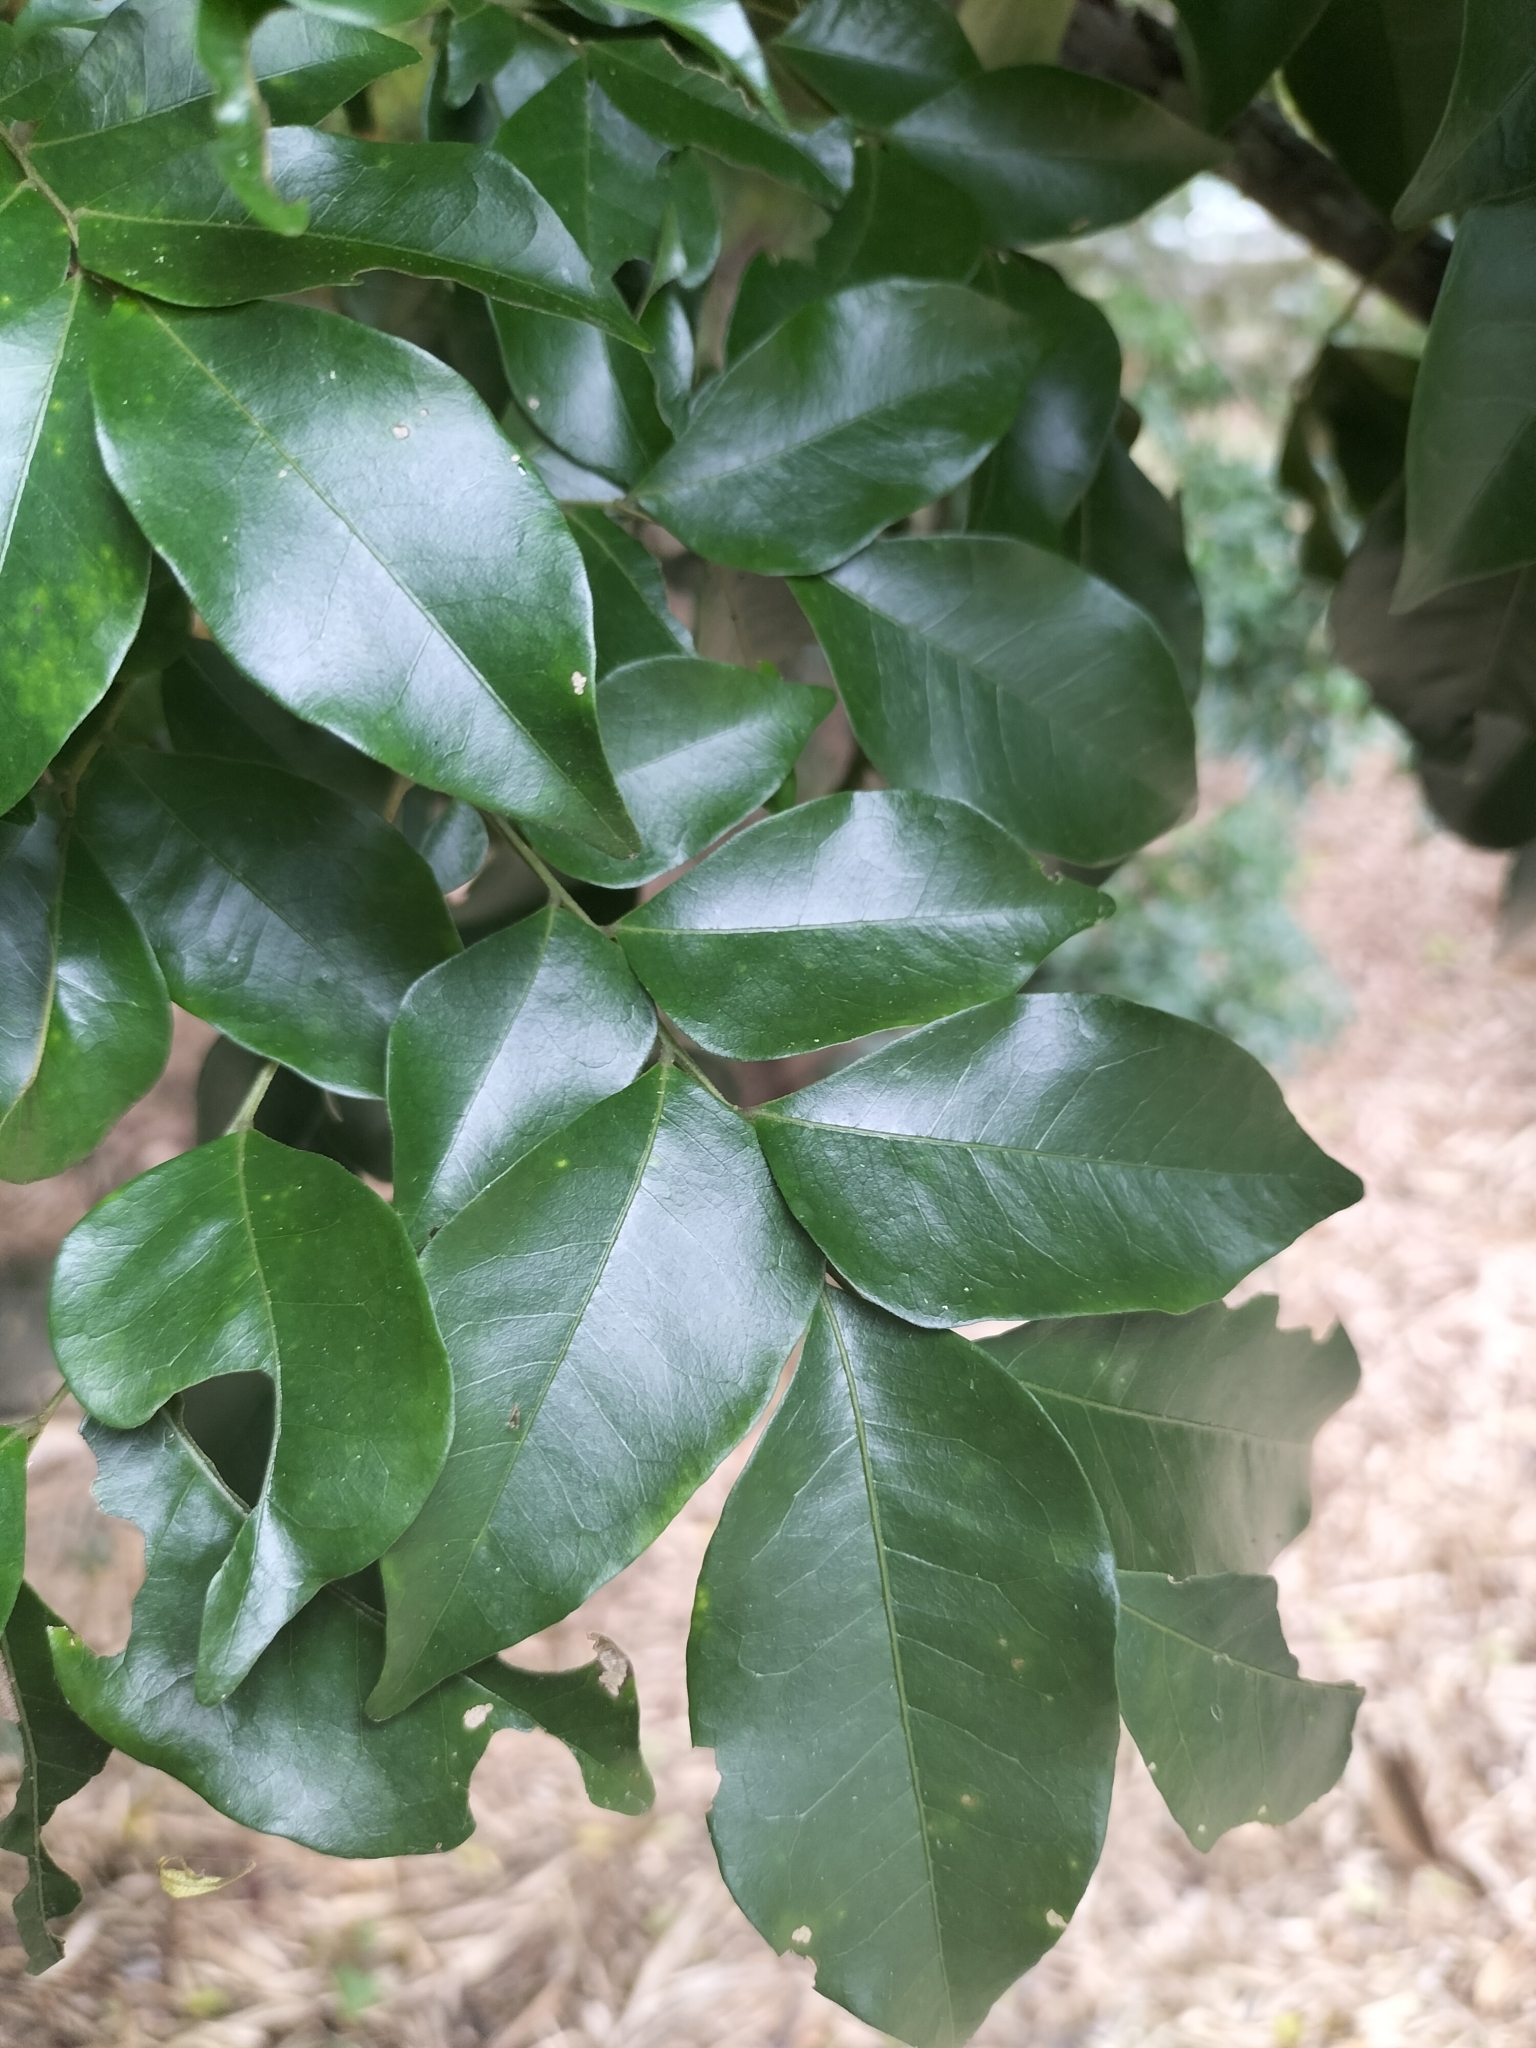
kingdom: Plantae
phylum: Tracheophyta
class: Magnoliopsida
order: Fabales
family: Fabaceae
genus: Pararchidendron
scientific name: Pararchidendron pruinosum
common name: Tulip siris
